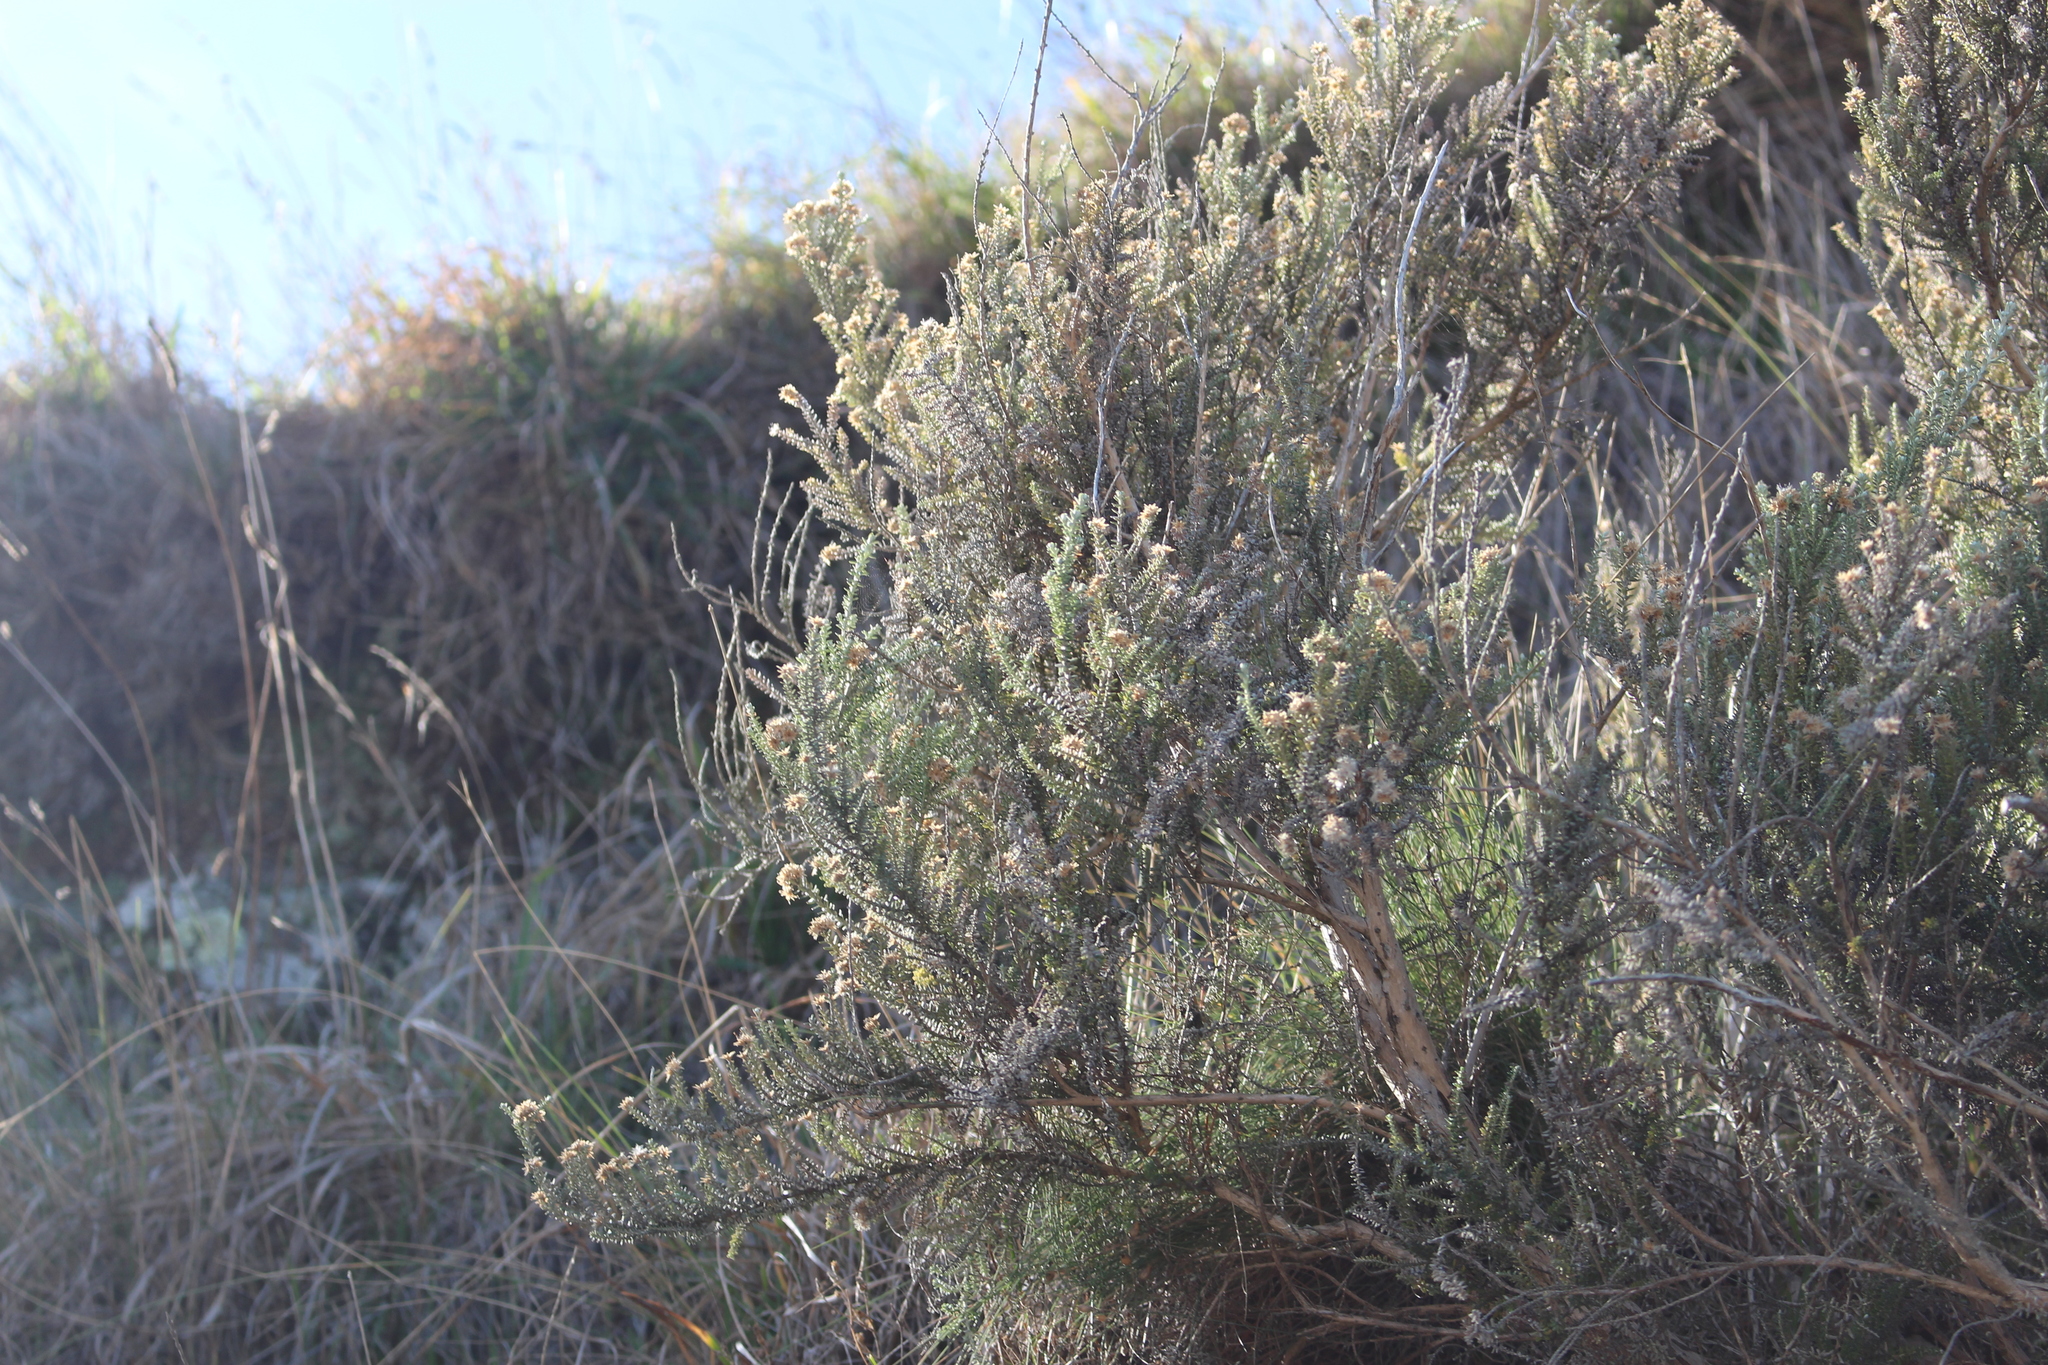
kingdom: Plantae
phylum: Tracheophyta
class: Magnoliopsida
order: Asterales
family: Asteraceae
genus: Ozothamnus
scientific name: Ozothamnus leptophyllus
